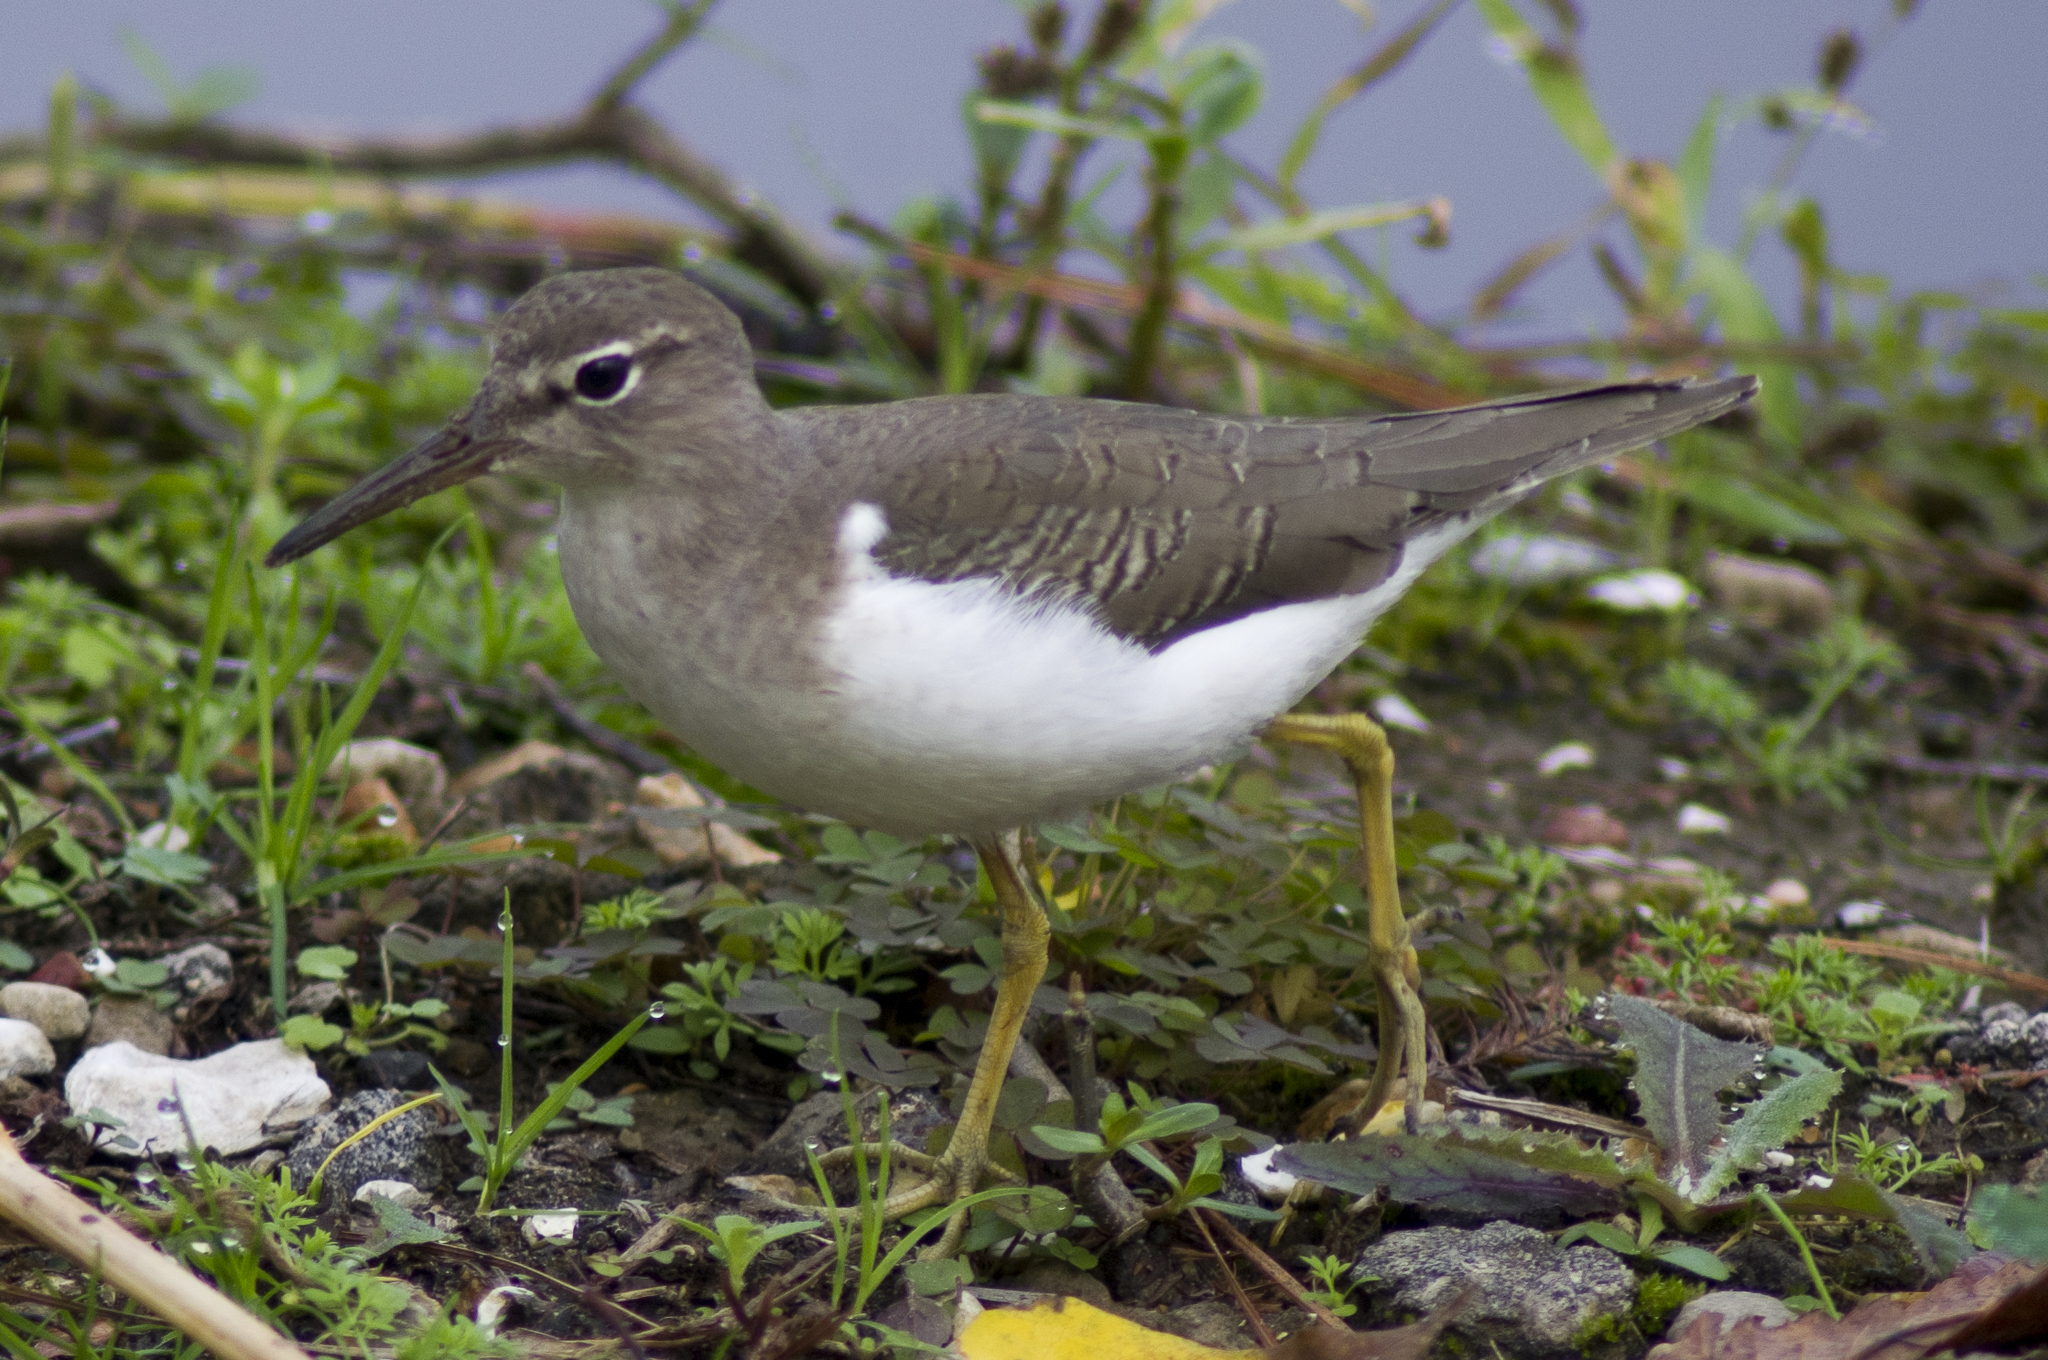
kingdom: Animalia
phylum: Chordata
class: Aves
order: Charadriiformes
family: Scolopacidae
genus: Actitis
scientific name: Actitis macularius
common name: Spotted sandpiper
